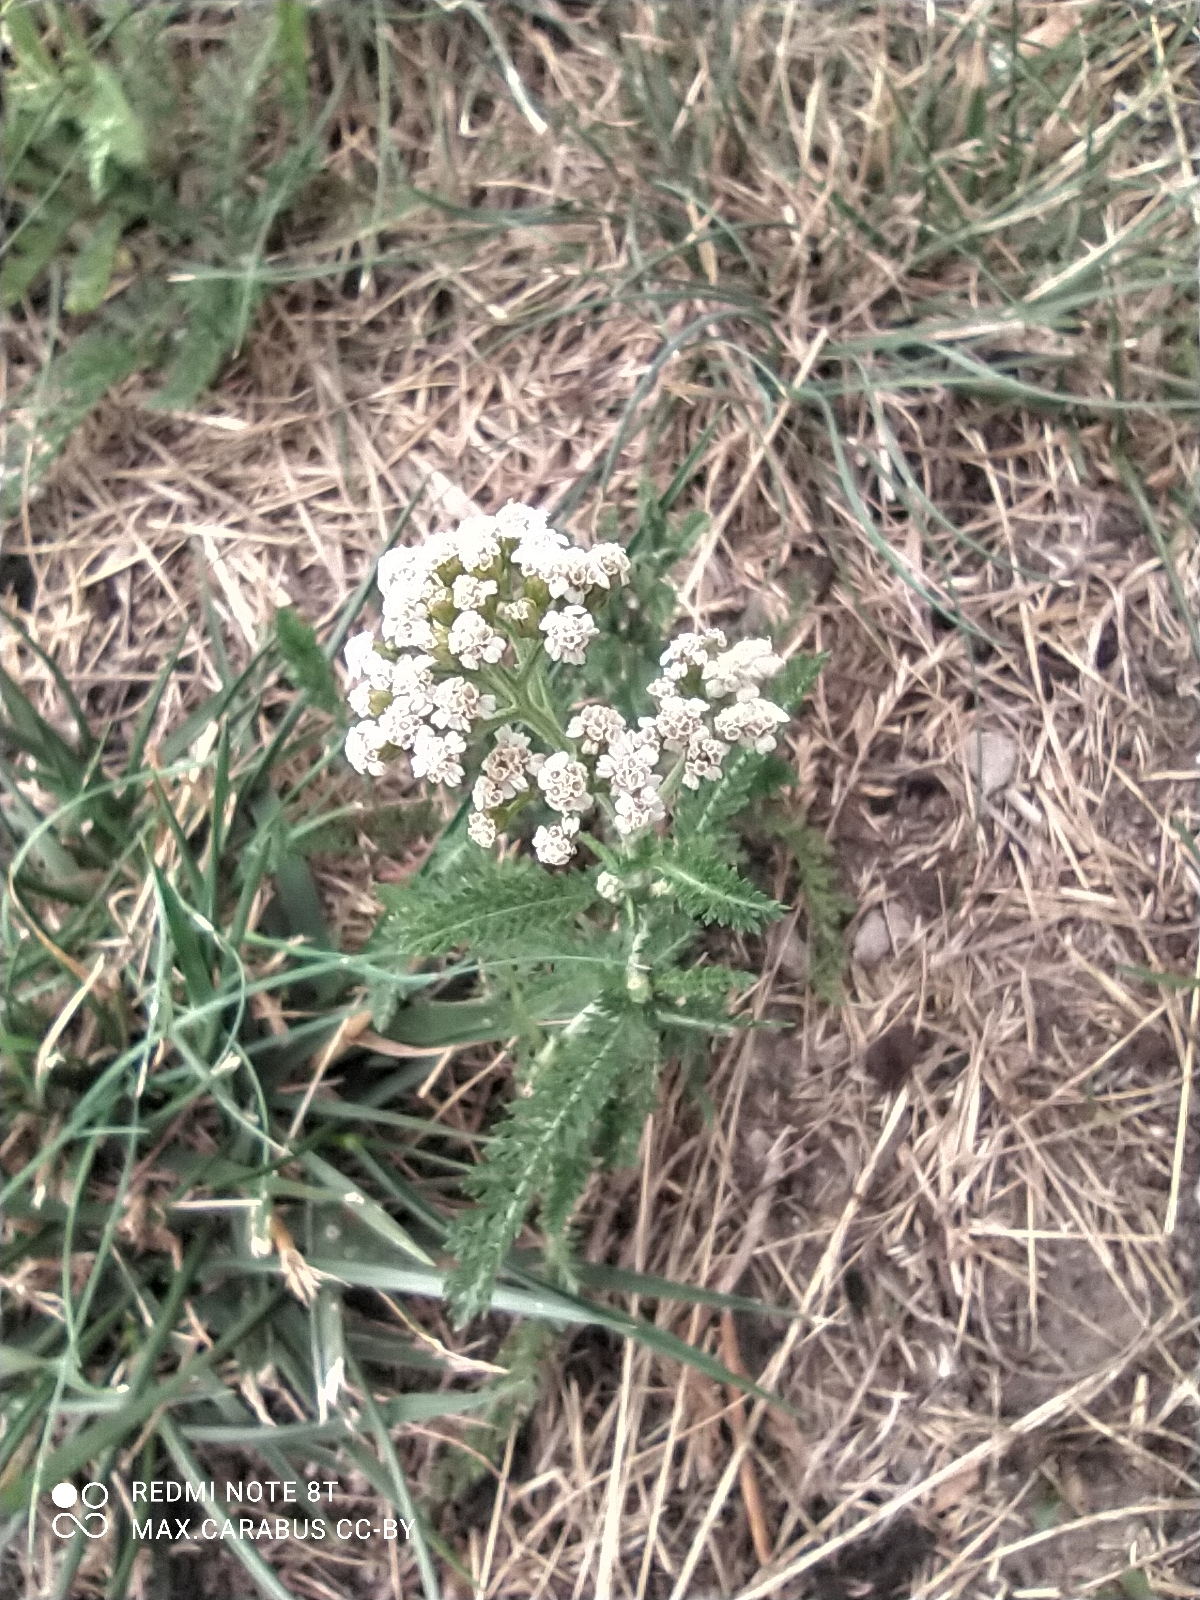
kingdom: Plantae
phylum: Tracheophyta
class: Magnoliopsida
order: Asterales
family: Asteraceae
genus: Achillea
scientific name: Achillea millefolium
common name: Yarrow
